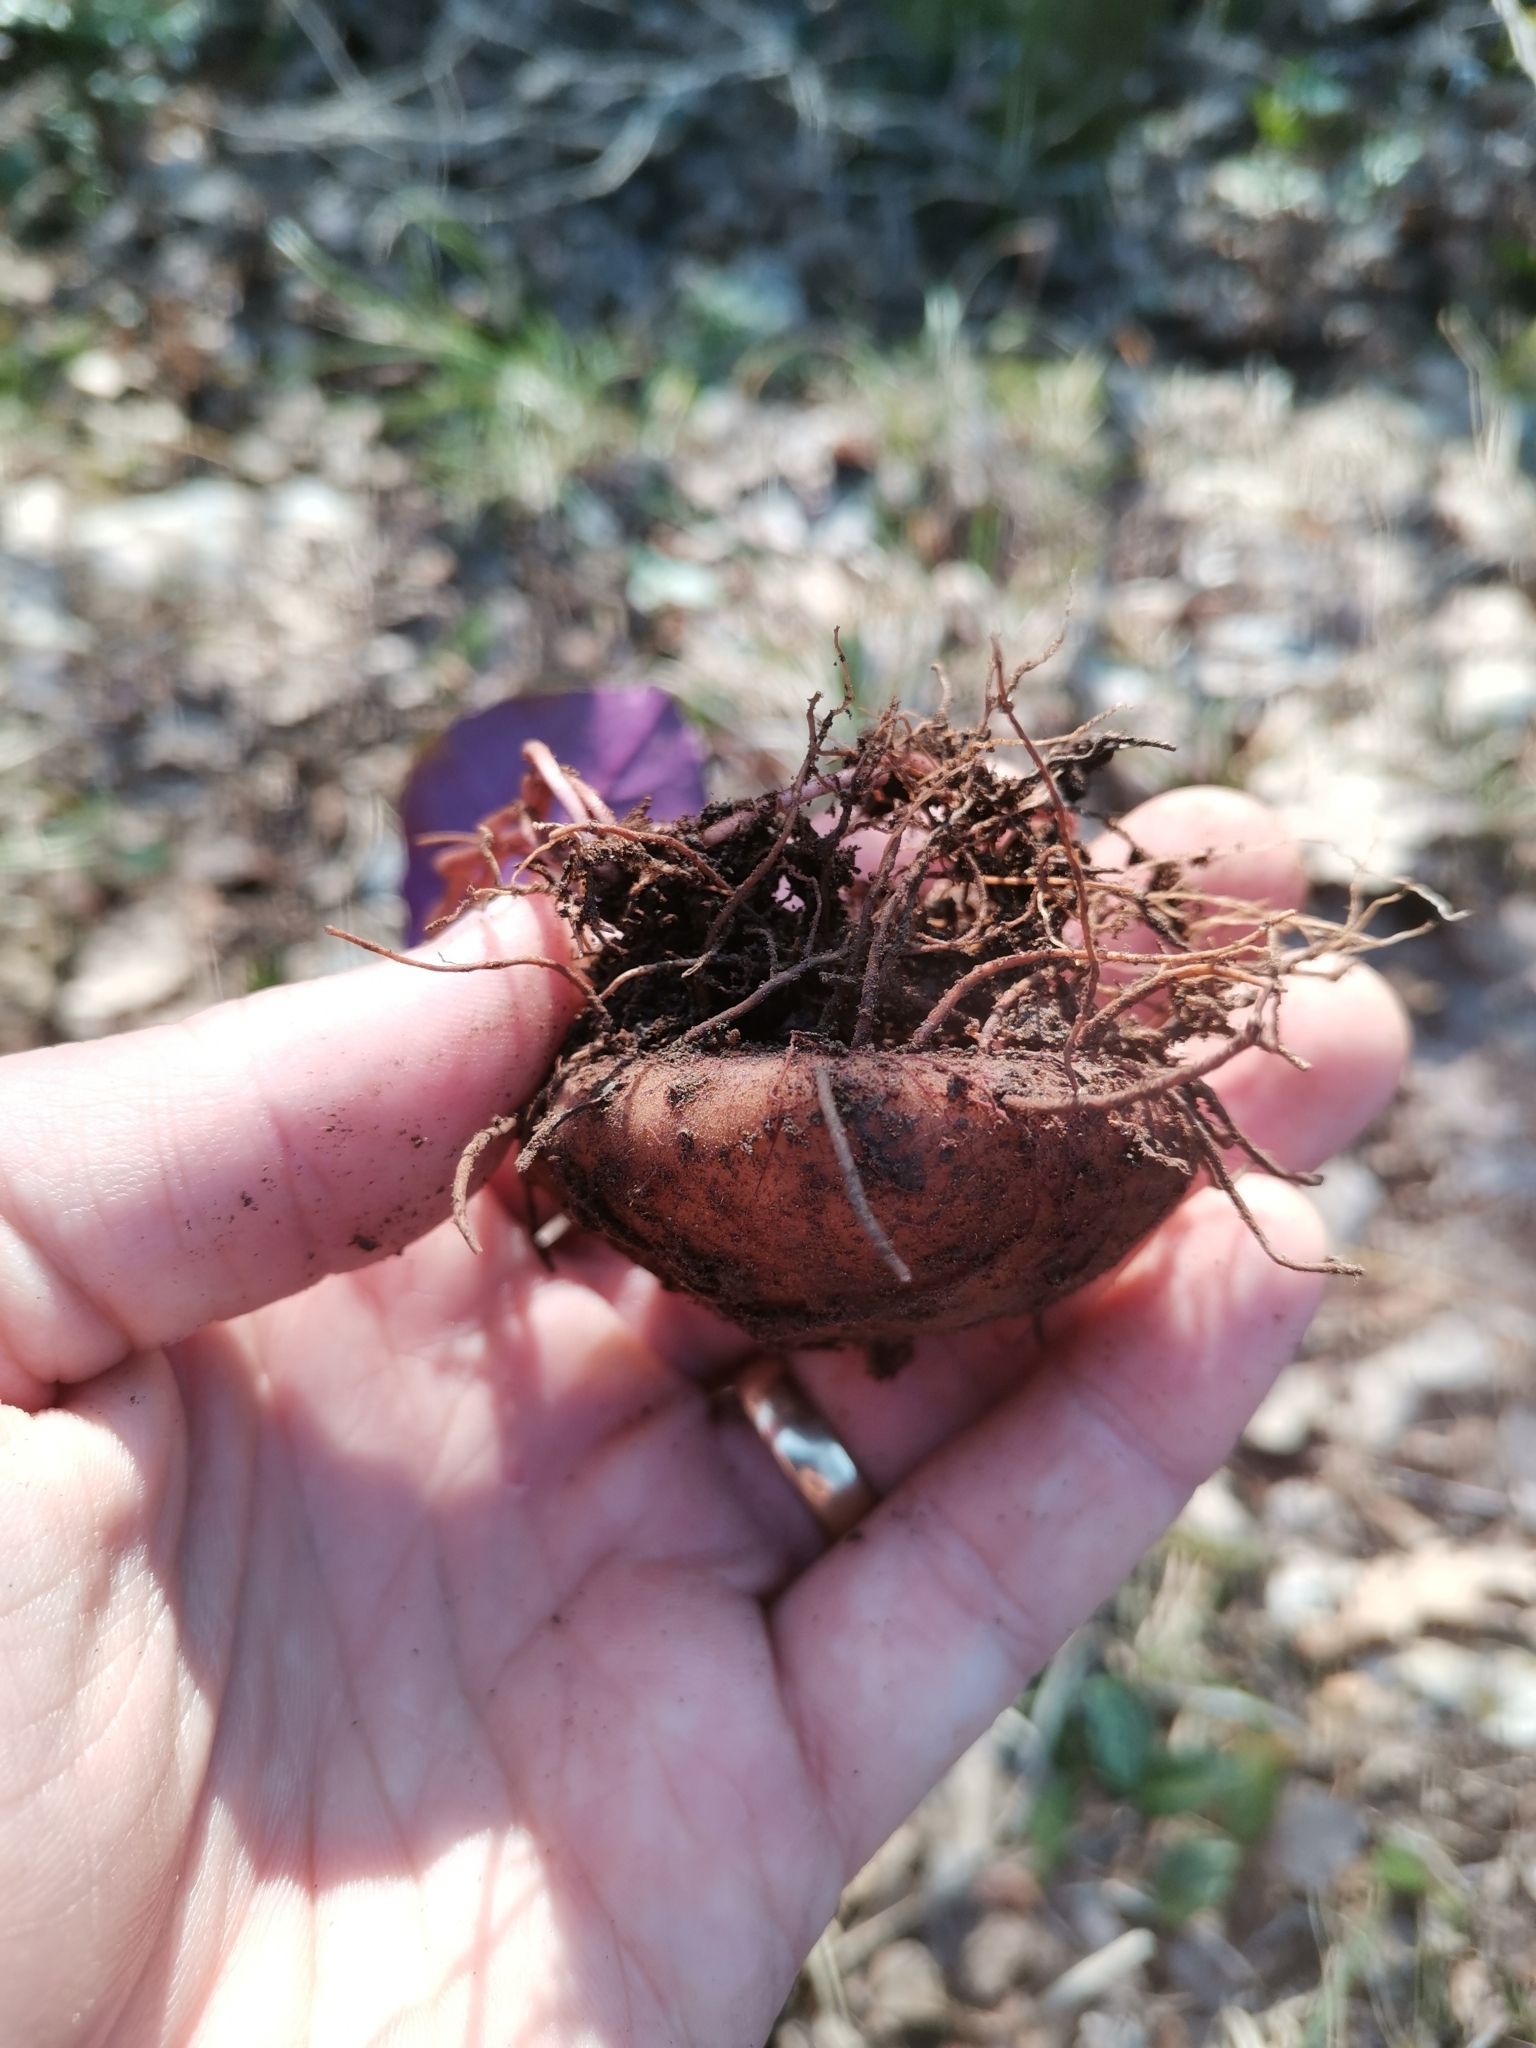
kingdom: Plantae
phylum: Tracheophyta
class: Magnoliopsida
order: Ericales
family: Primulaceae
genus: Cyclamen
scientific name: Cyclamen purpurascens
